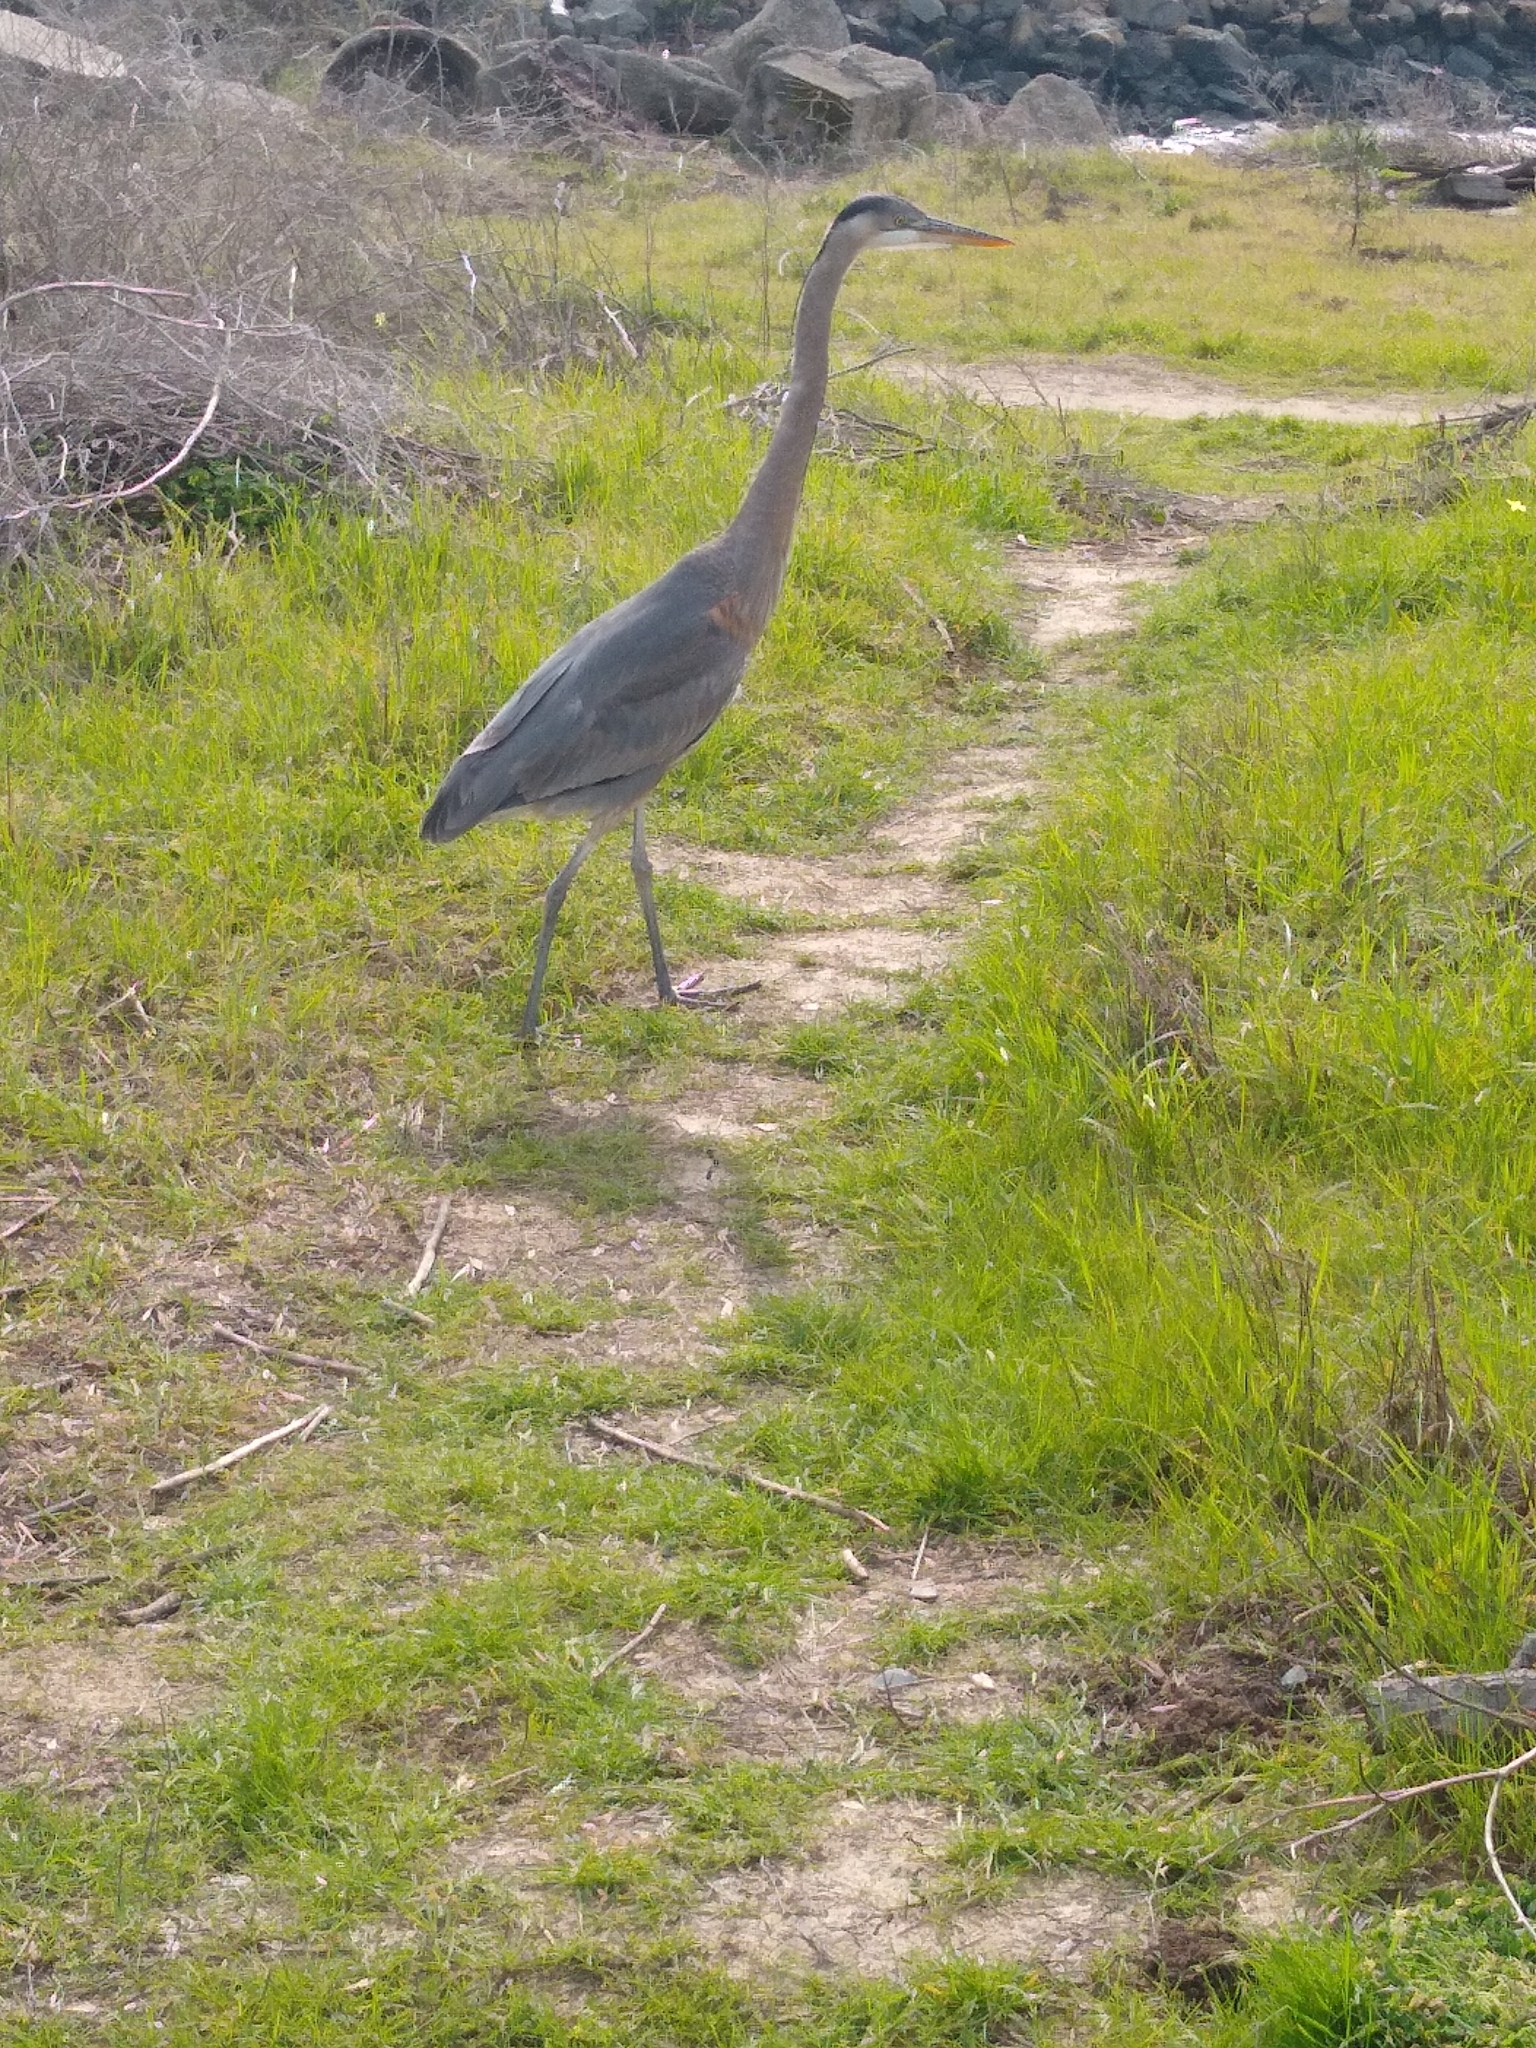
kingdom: Animalia
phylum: Chordata
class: Aves
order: Pelecaniformes
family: Ardeidae
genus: Ardea
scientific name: Ardea herodias
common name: Great blue heron
